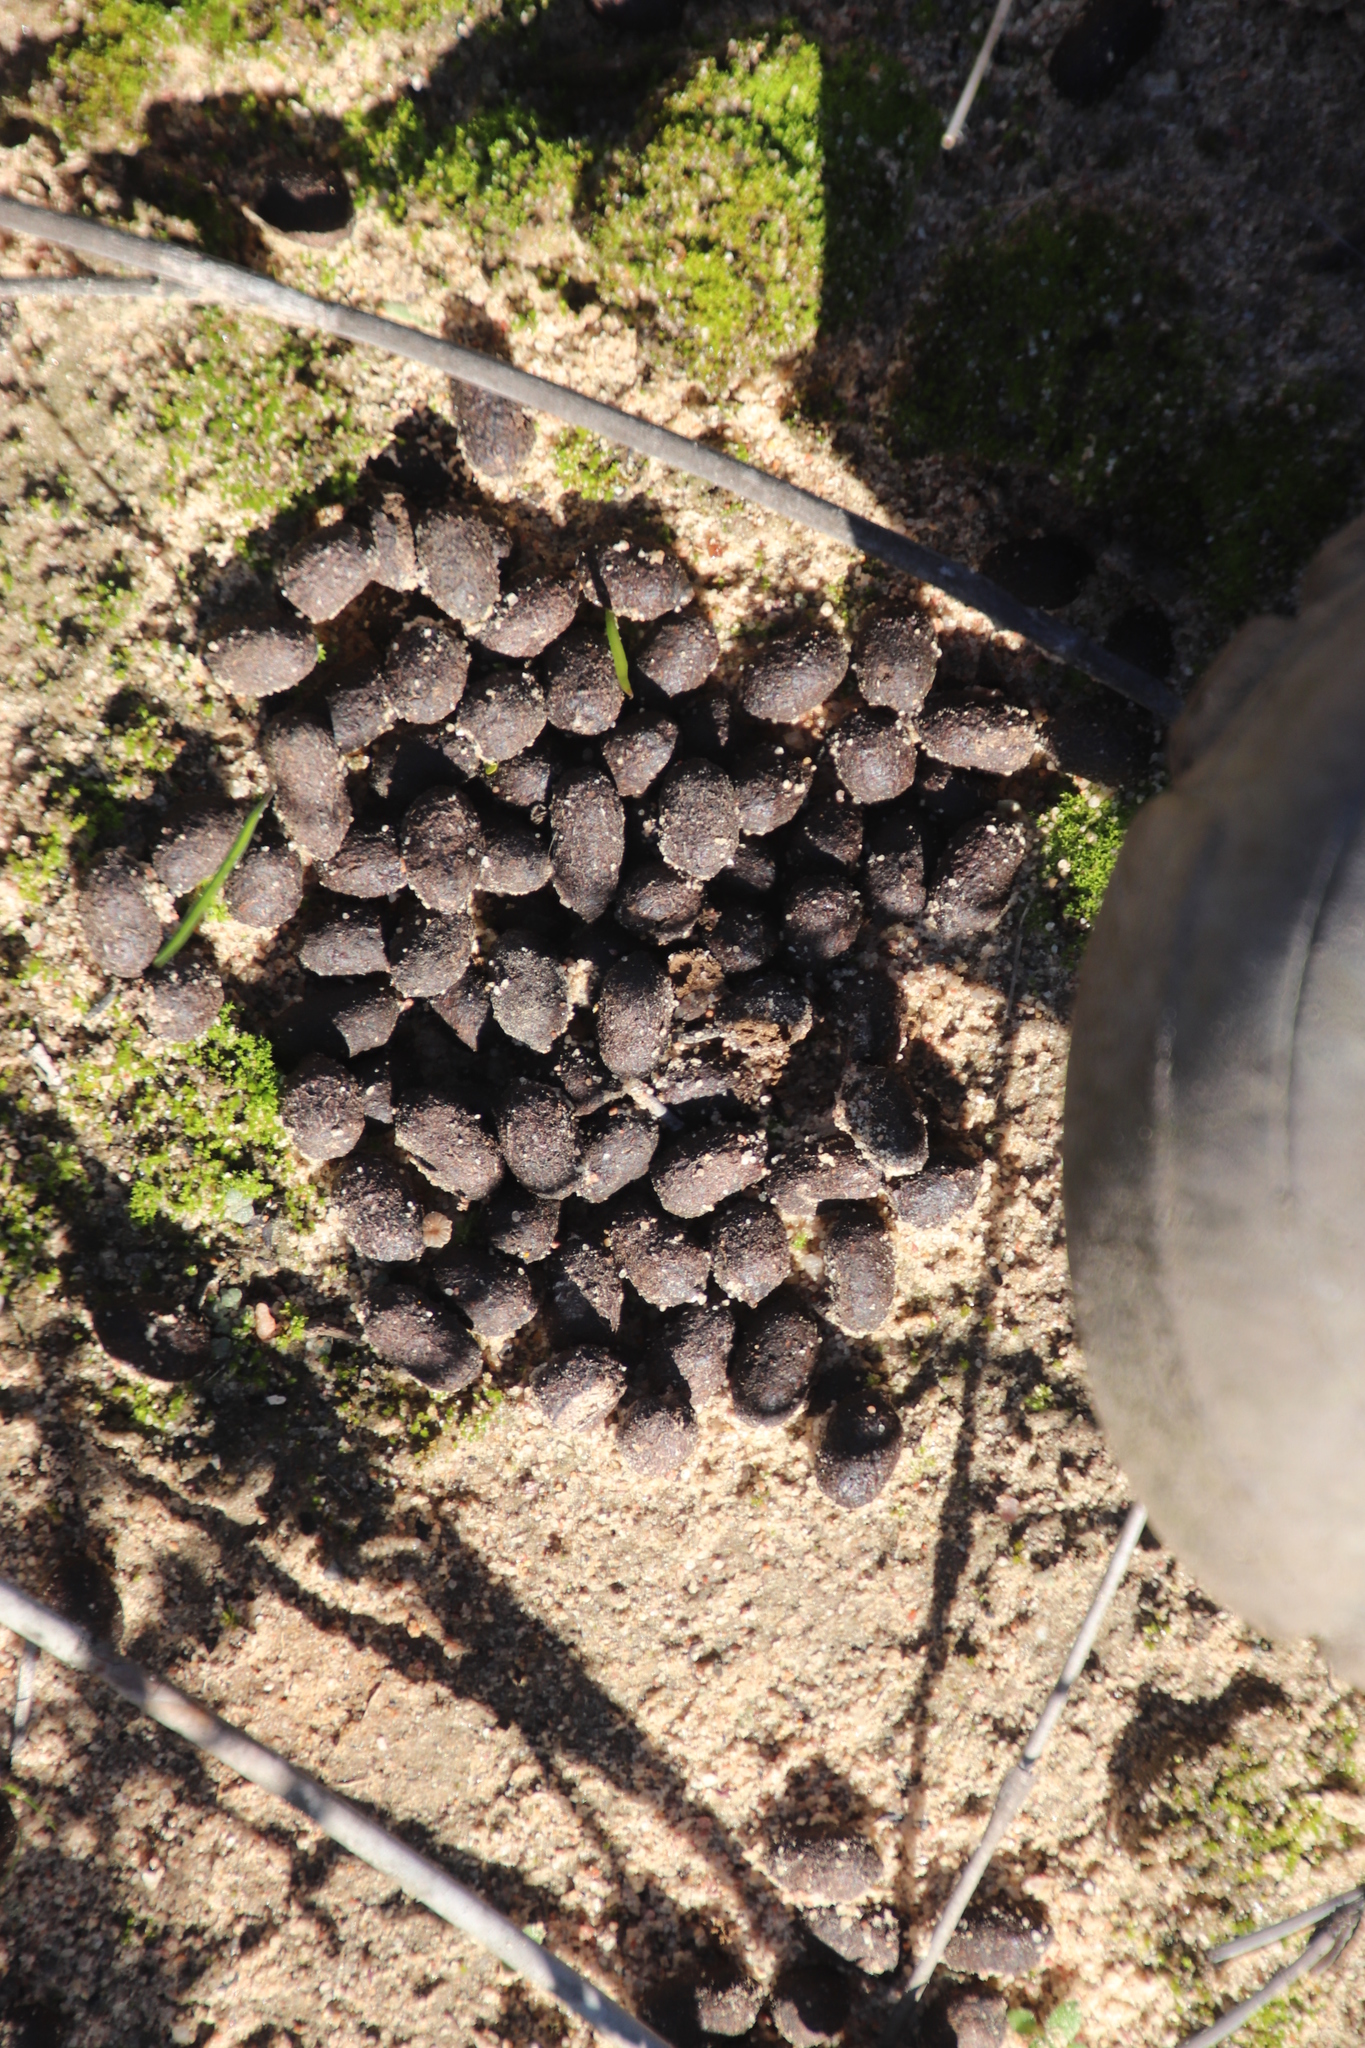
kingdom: Animalia
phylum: Chordata
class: Mammalia
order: Artiodactyla
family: Bovidae
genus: Sylvicapra
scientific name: Sylvicapra grimmia
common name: Bush duiker
